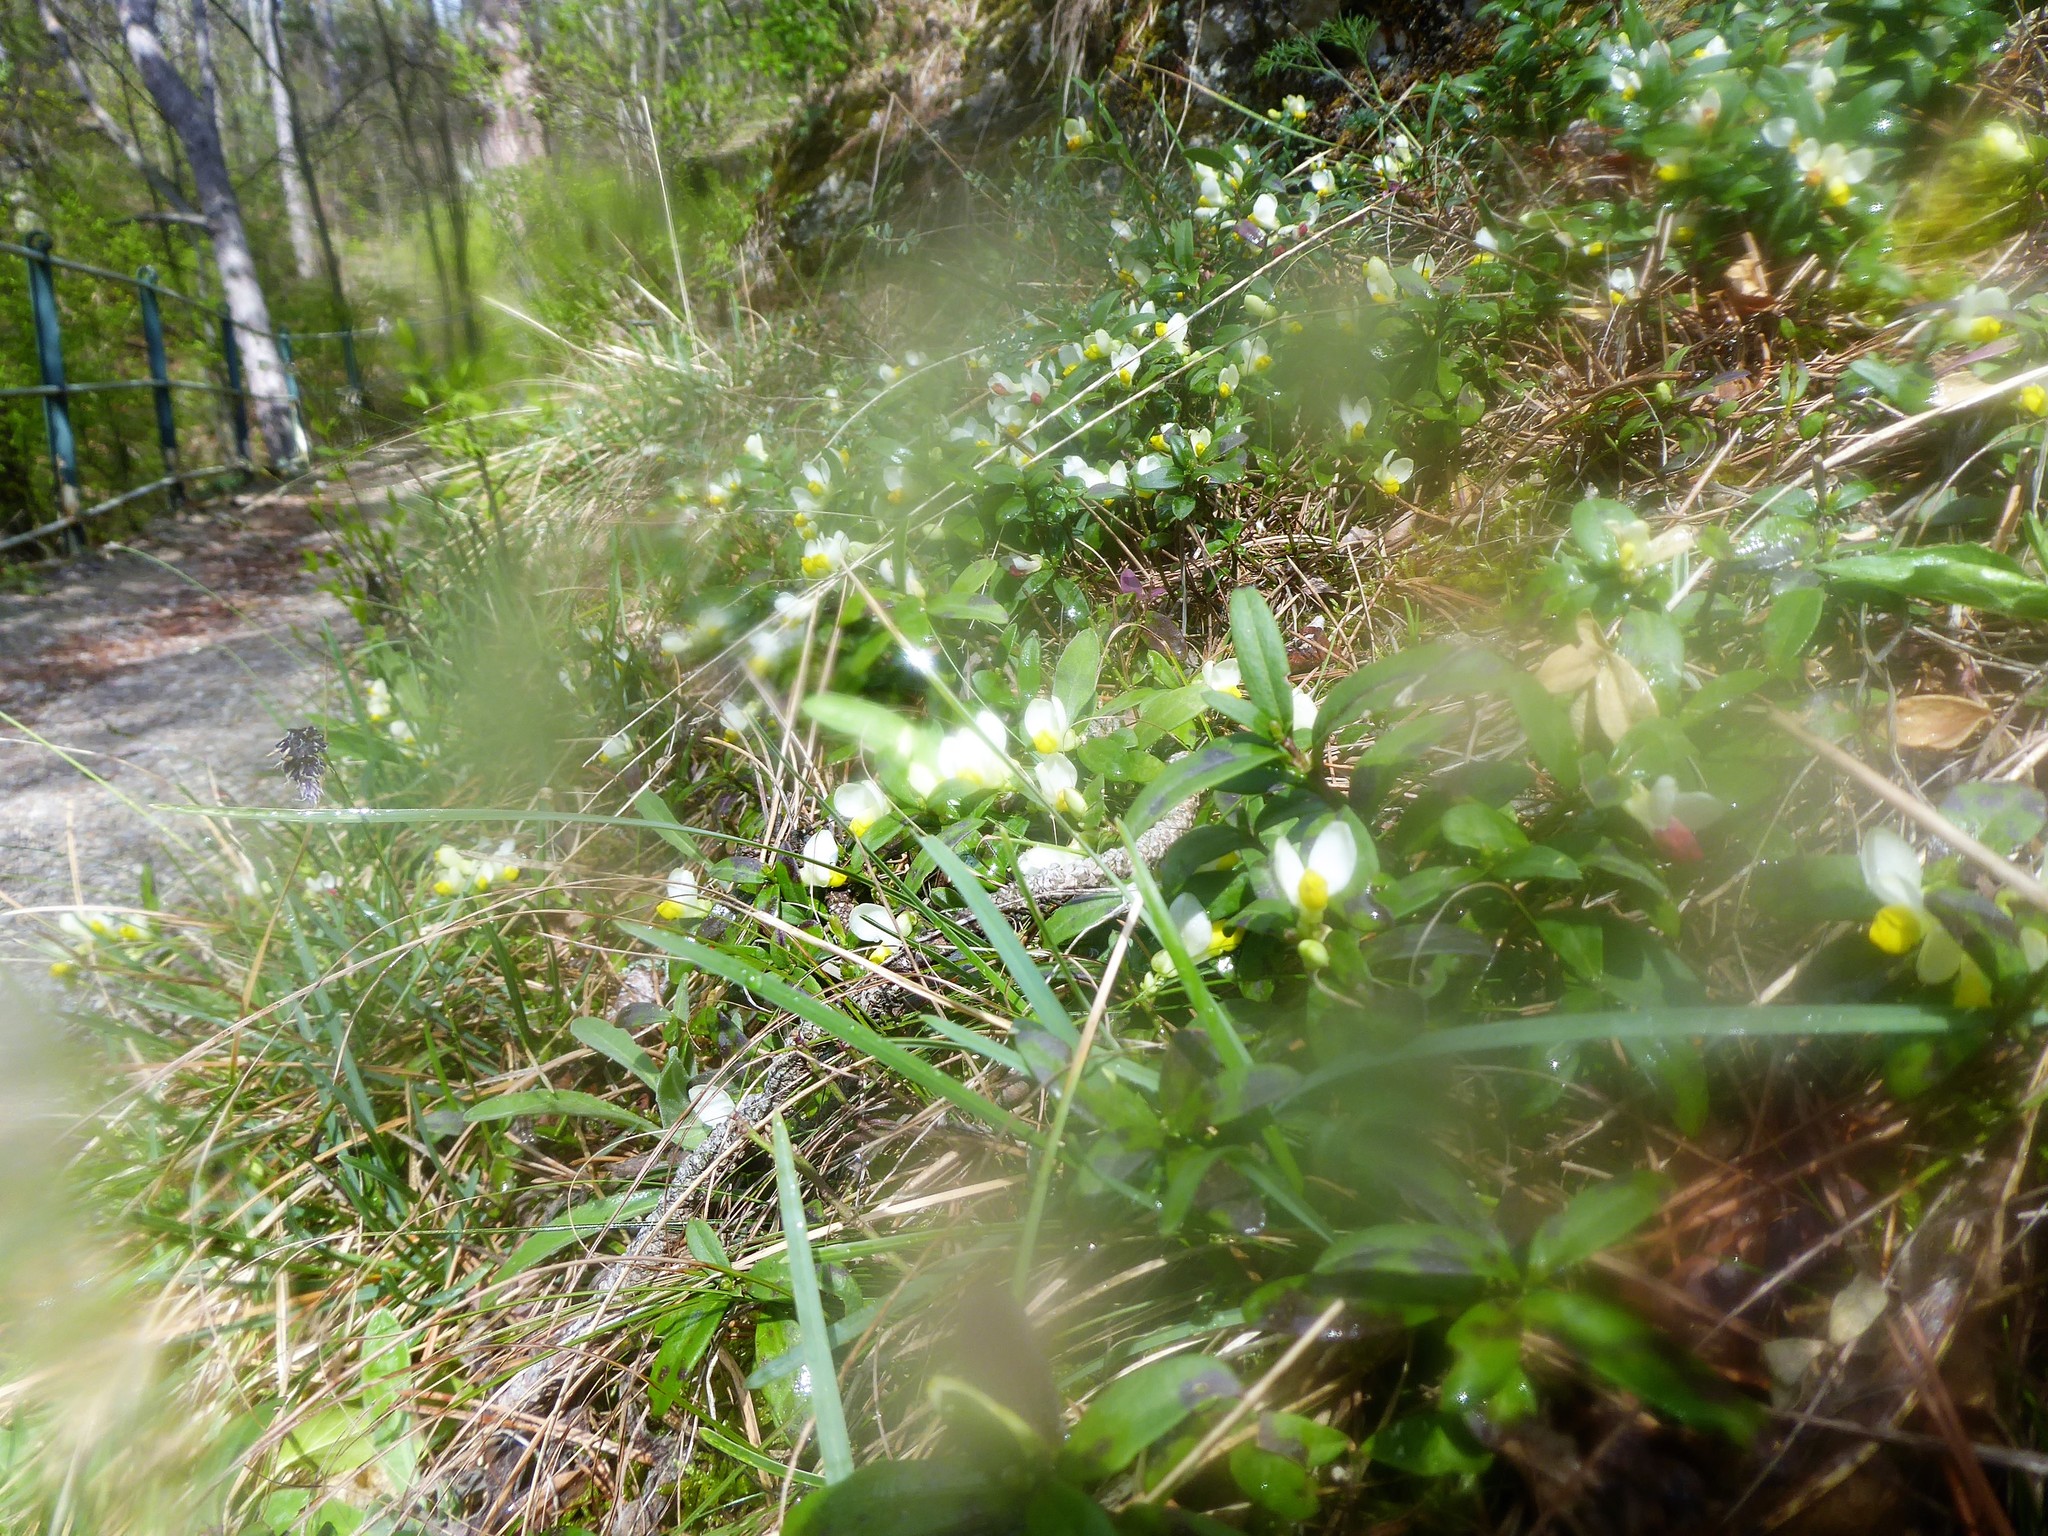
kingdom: Plantae
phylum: Tracheophyta
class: Magnoliopsida
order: Fabales
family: Polygalaceae
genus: Polygaloides
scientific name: Polygaloides chamaebuxus
